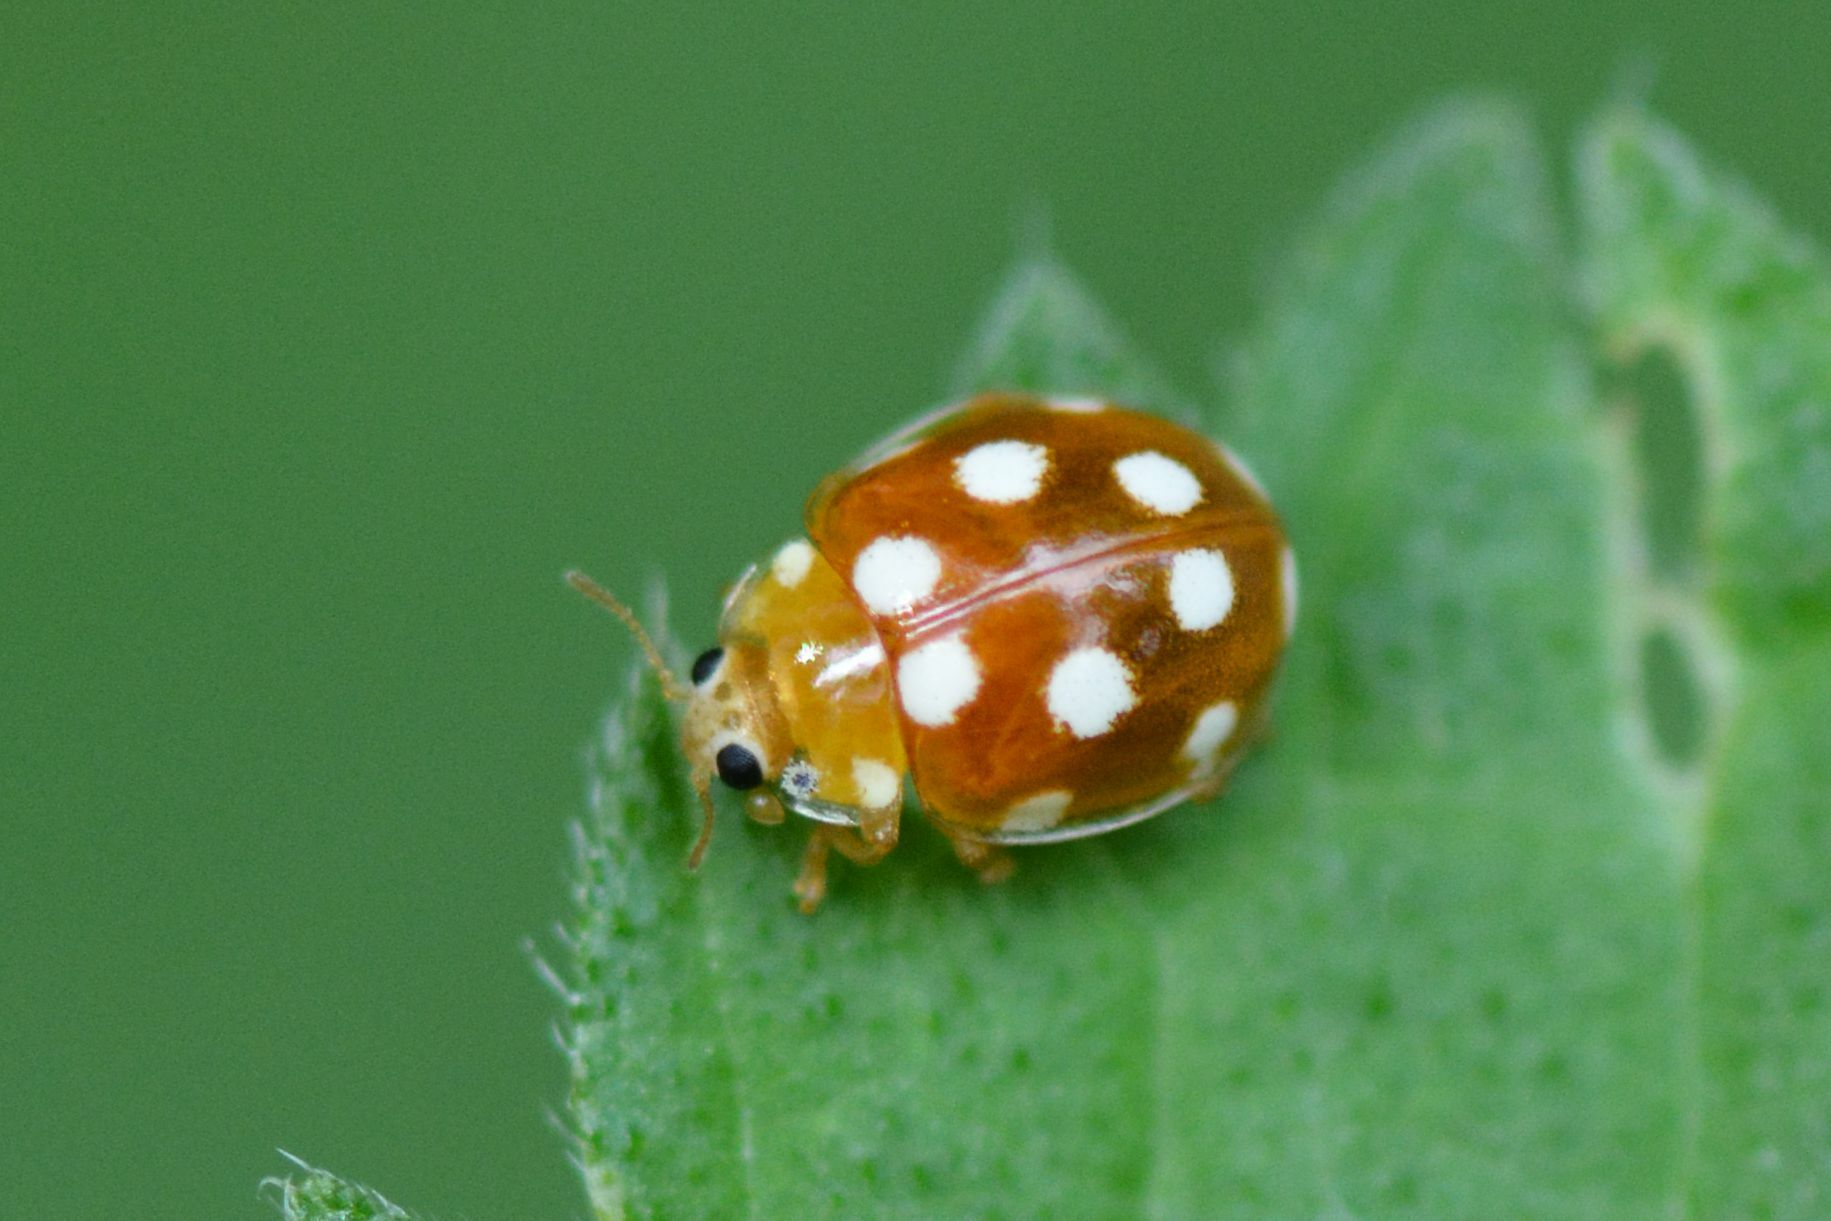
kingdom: Animalia
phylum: Arthropoda
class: Insecta
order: Coleoptera
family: Coccinellidae
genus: Vibidia
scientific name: Vibidia duodecimguttata
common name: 12-spot ladybird
